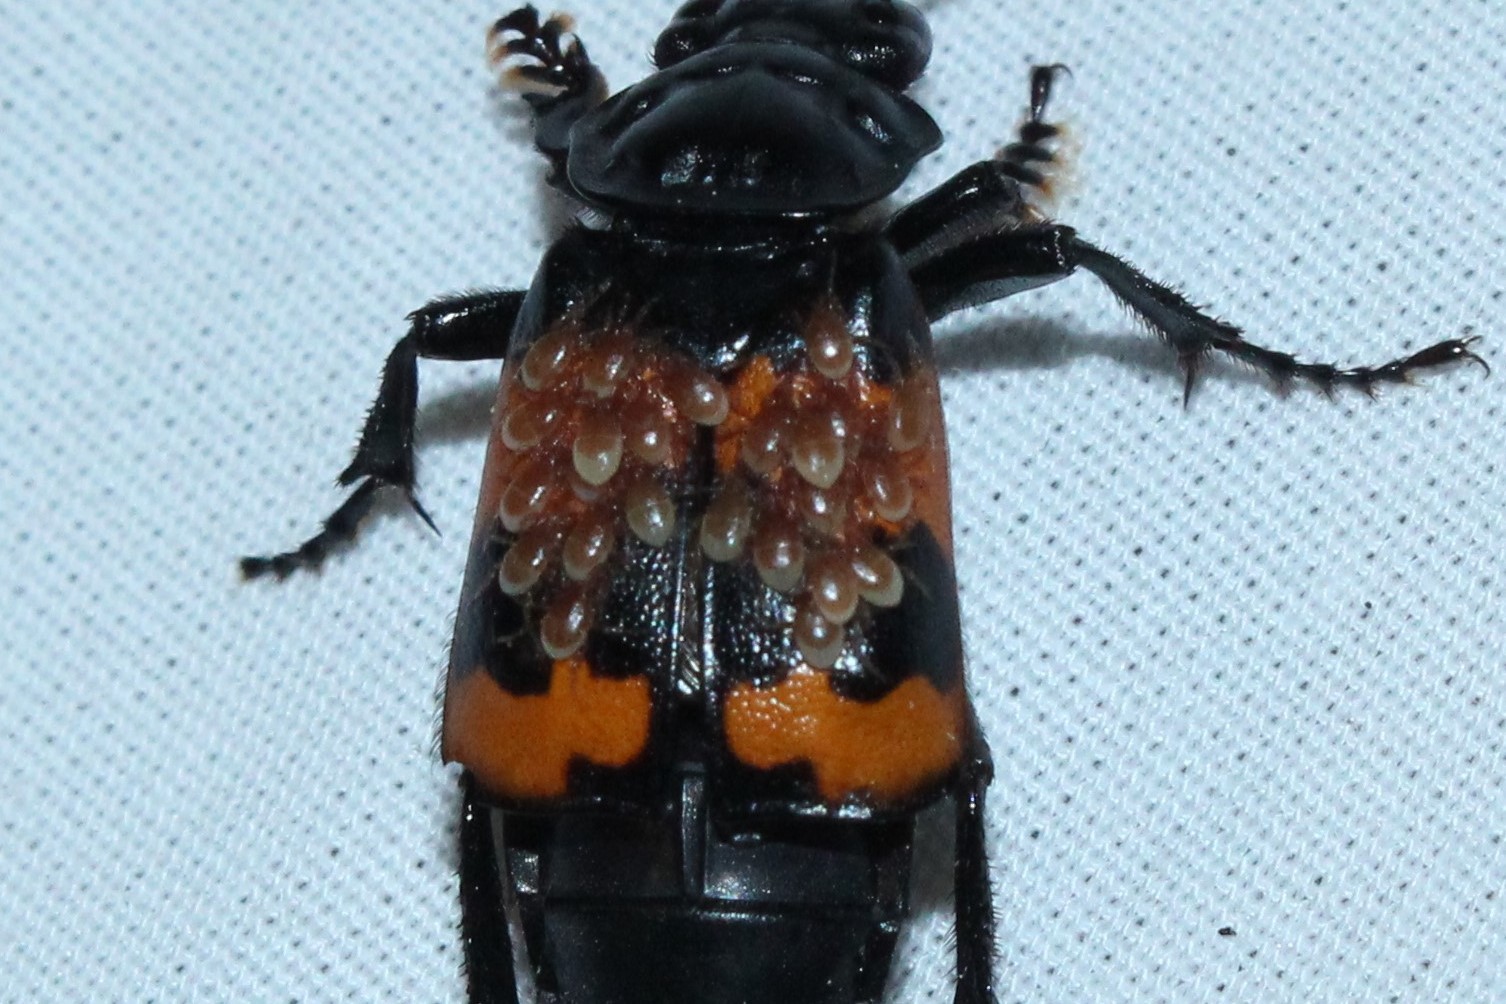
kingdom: Animalia
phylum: Arthropoda
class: Arachnida
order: Mesostigmata
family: Parasitidae
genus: Poecilochirus
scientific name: Poecilochirus
